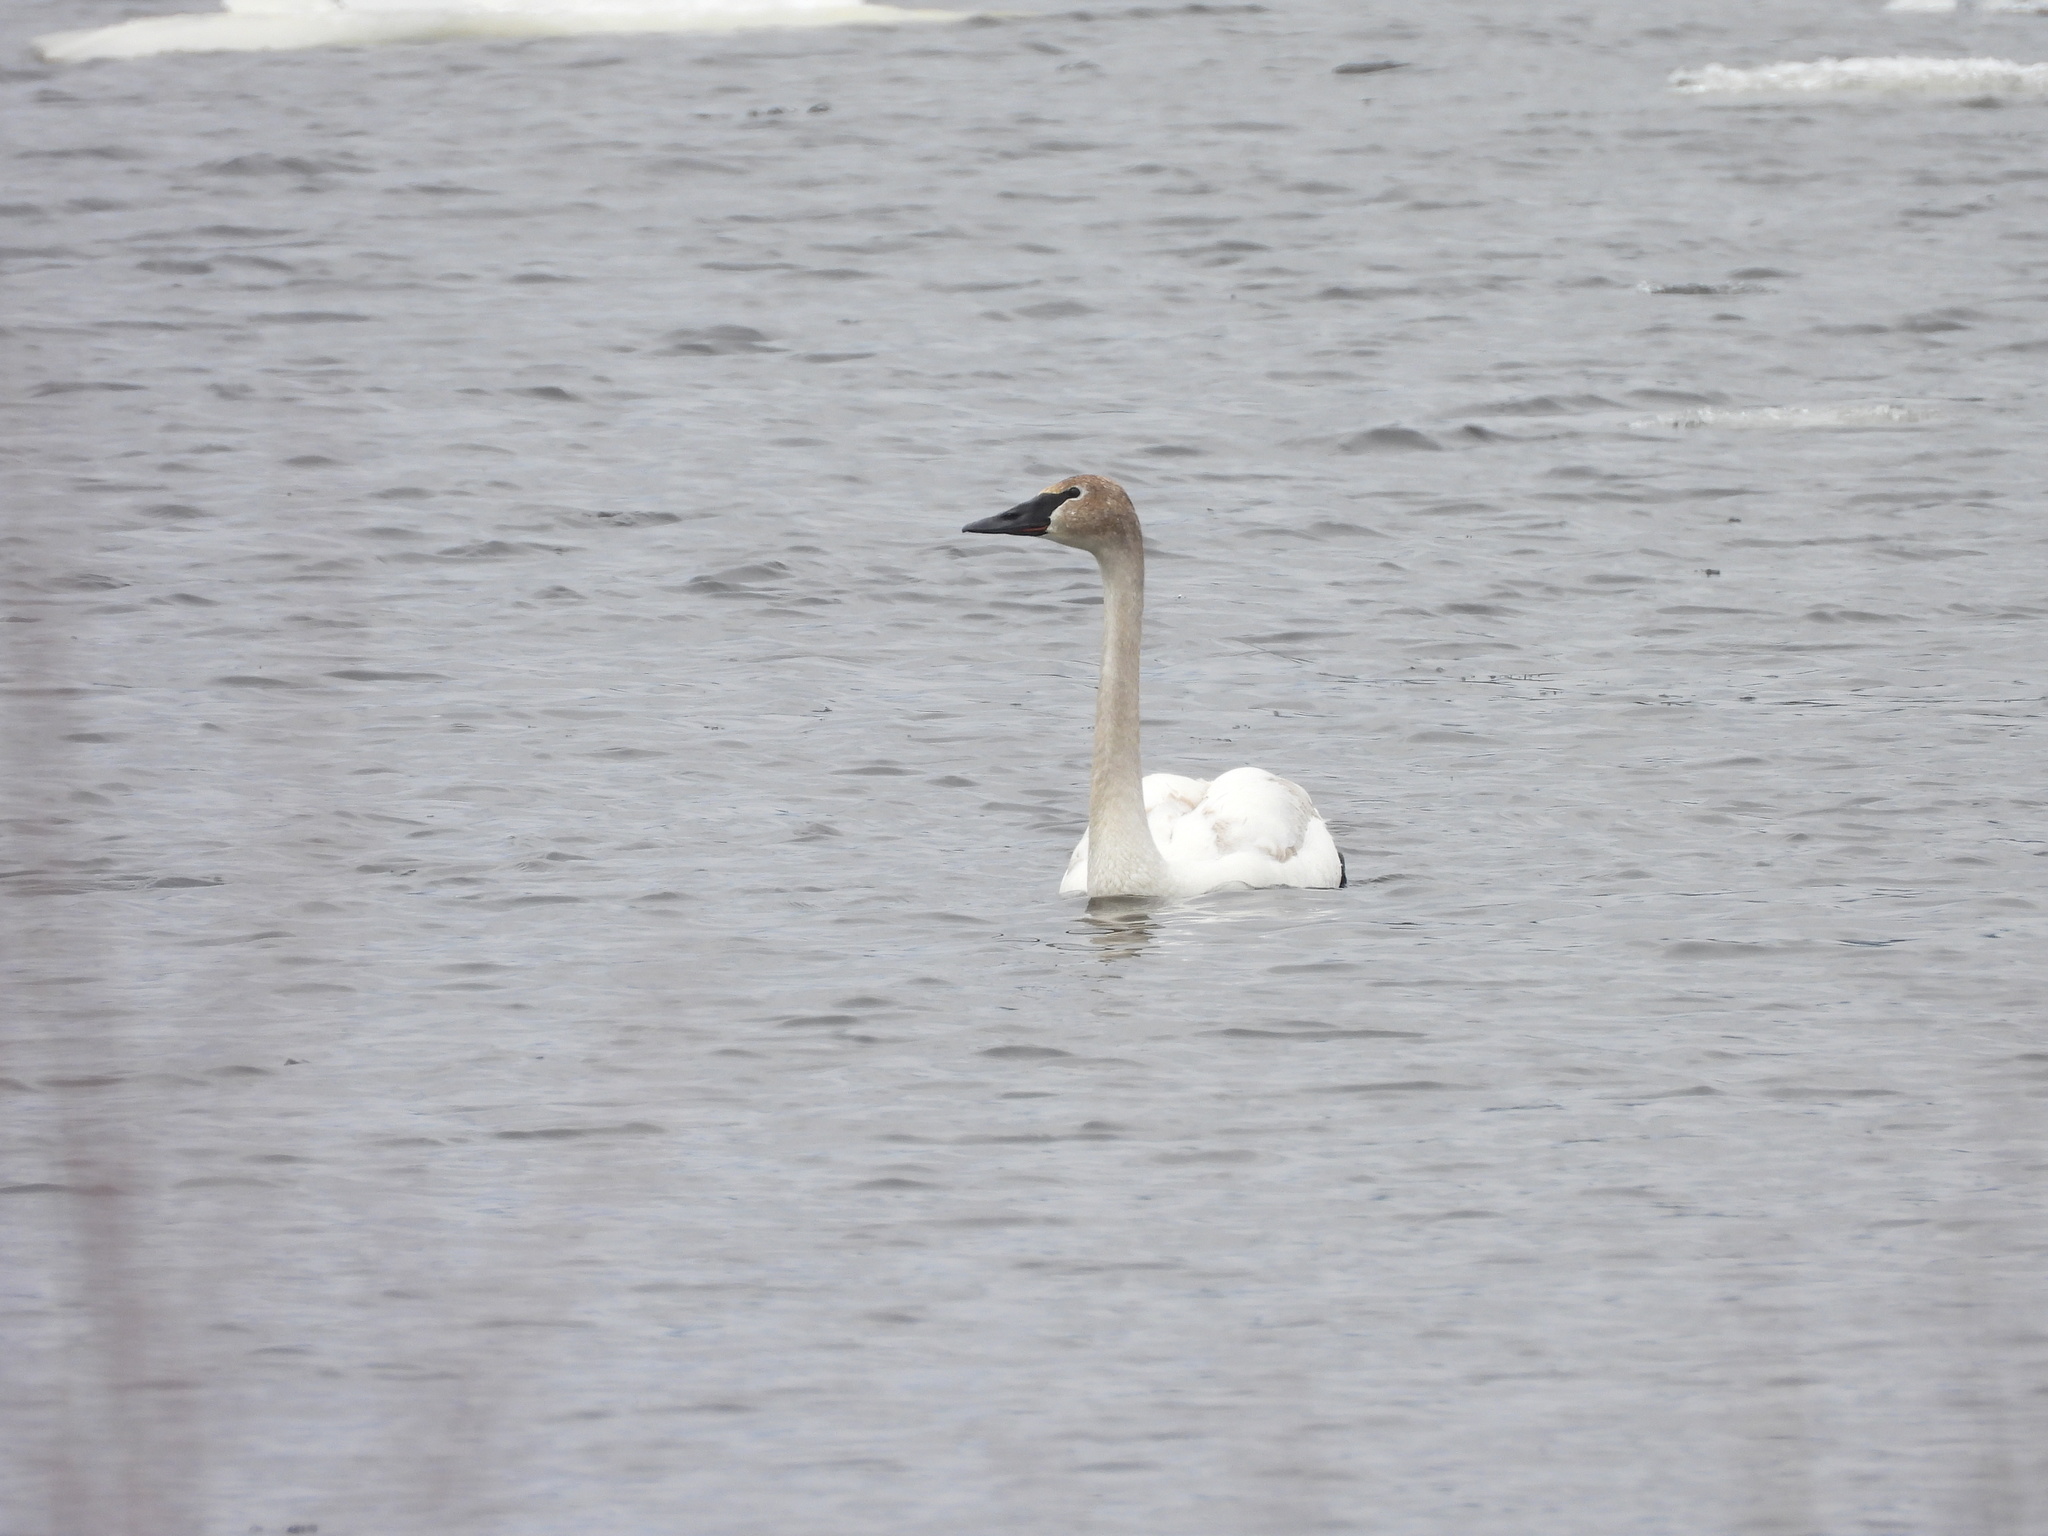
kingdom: Animalia
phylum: Chordata
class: Aves
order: Anseriformes
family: Anatidae
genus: Cygnus
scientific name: Cygnus buccinator
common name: Trumpeter swan
